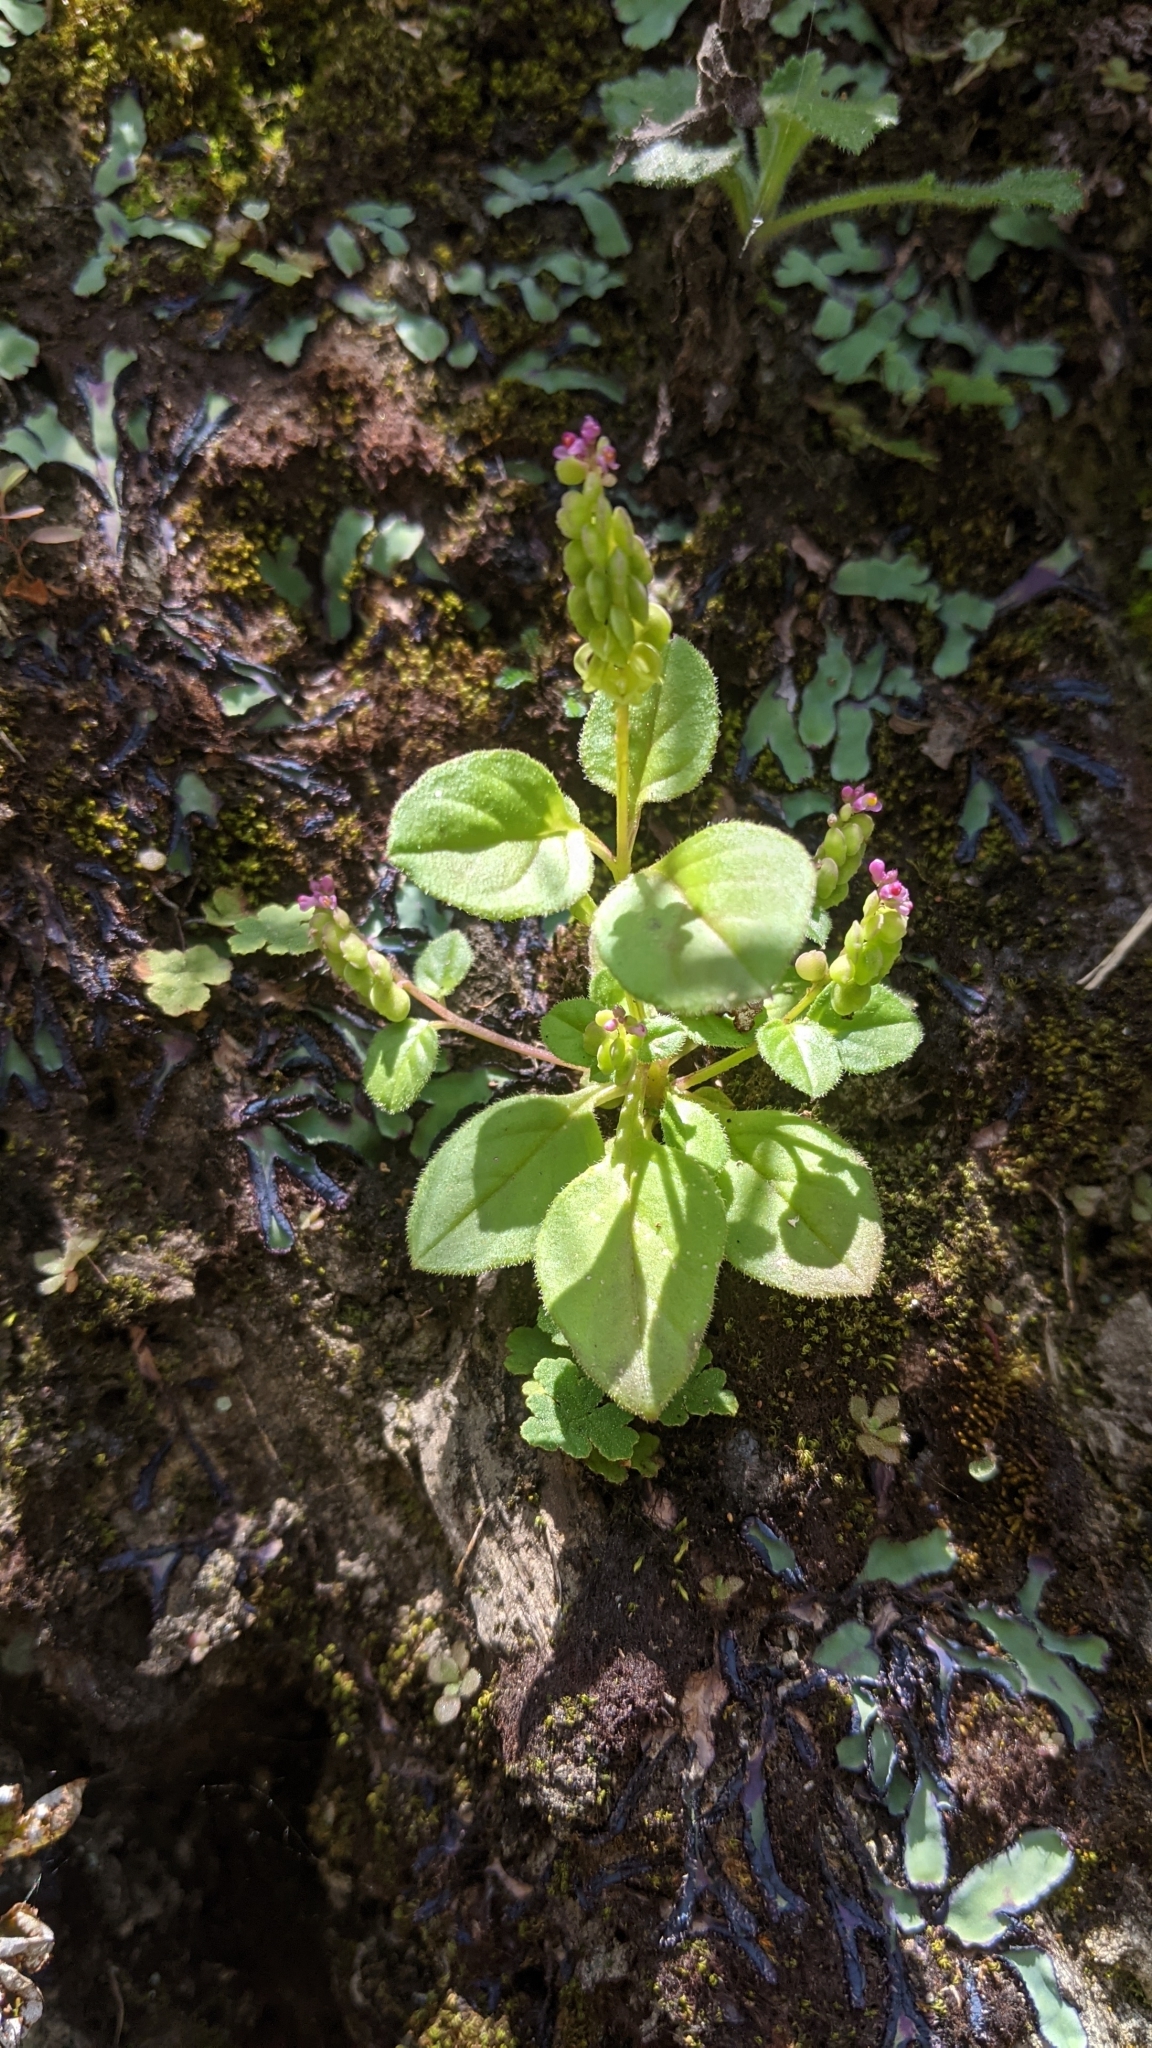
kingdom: Plantae
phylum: Tracheophyta
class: Magnoliopsida
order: Fabales
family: Polygalaceae
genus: Polygala
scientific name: Polygala tatarinowii
